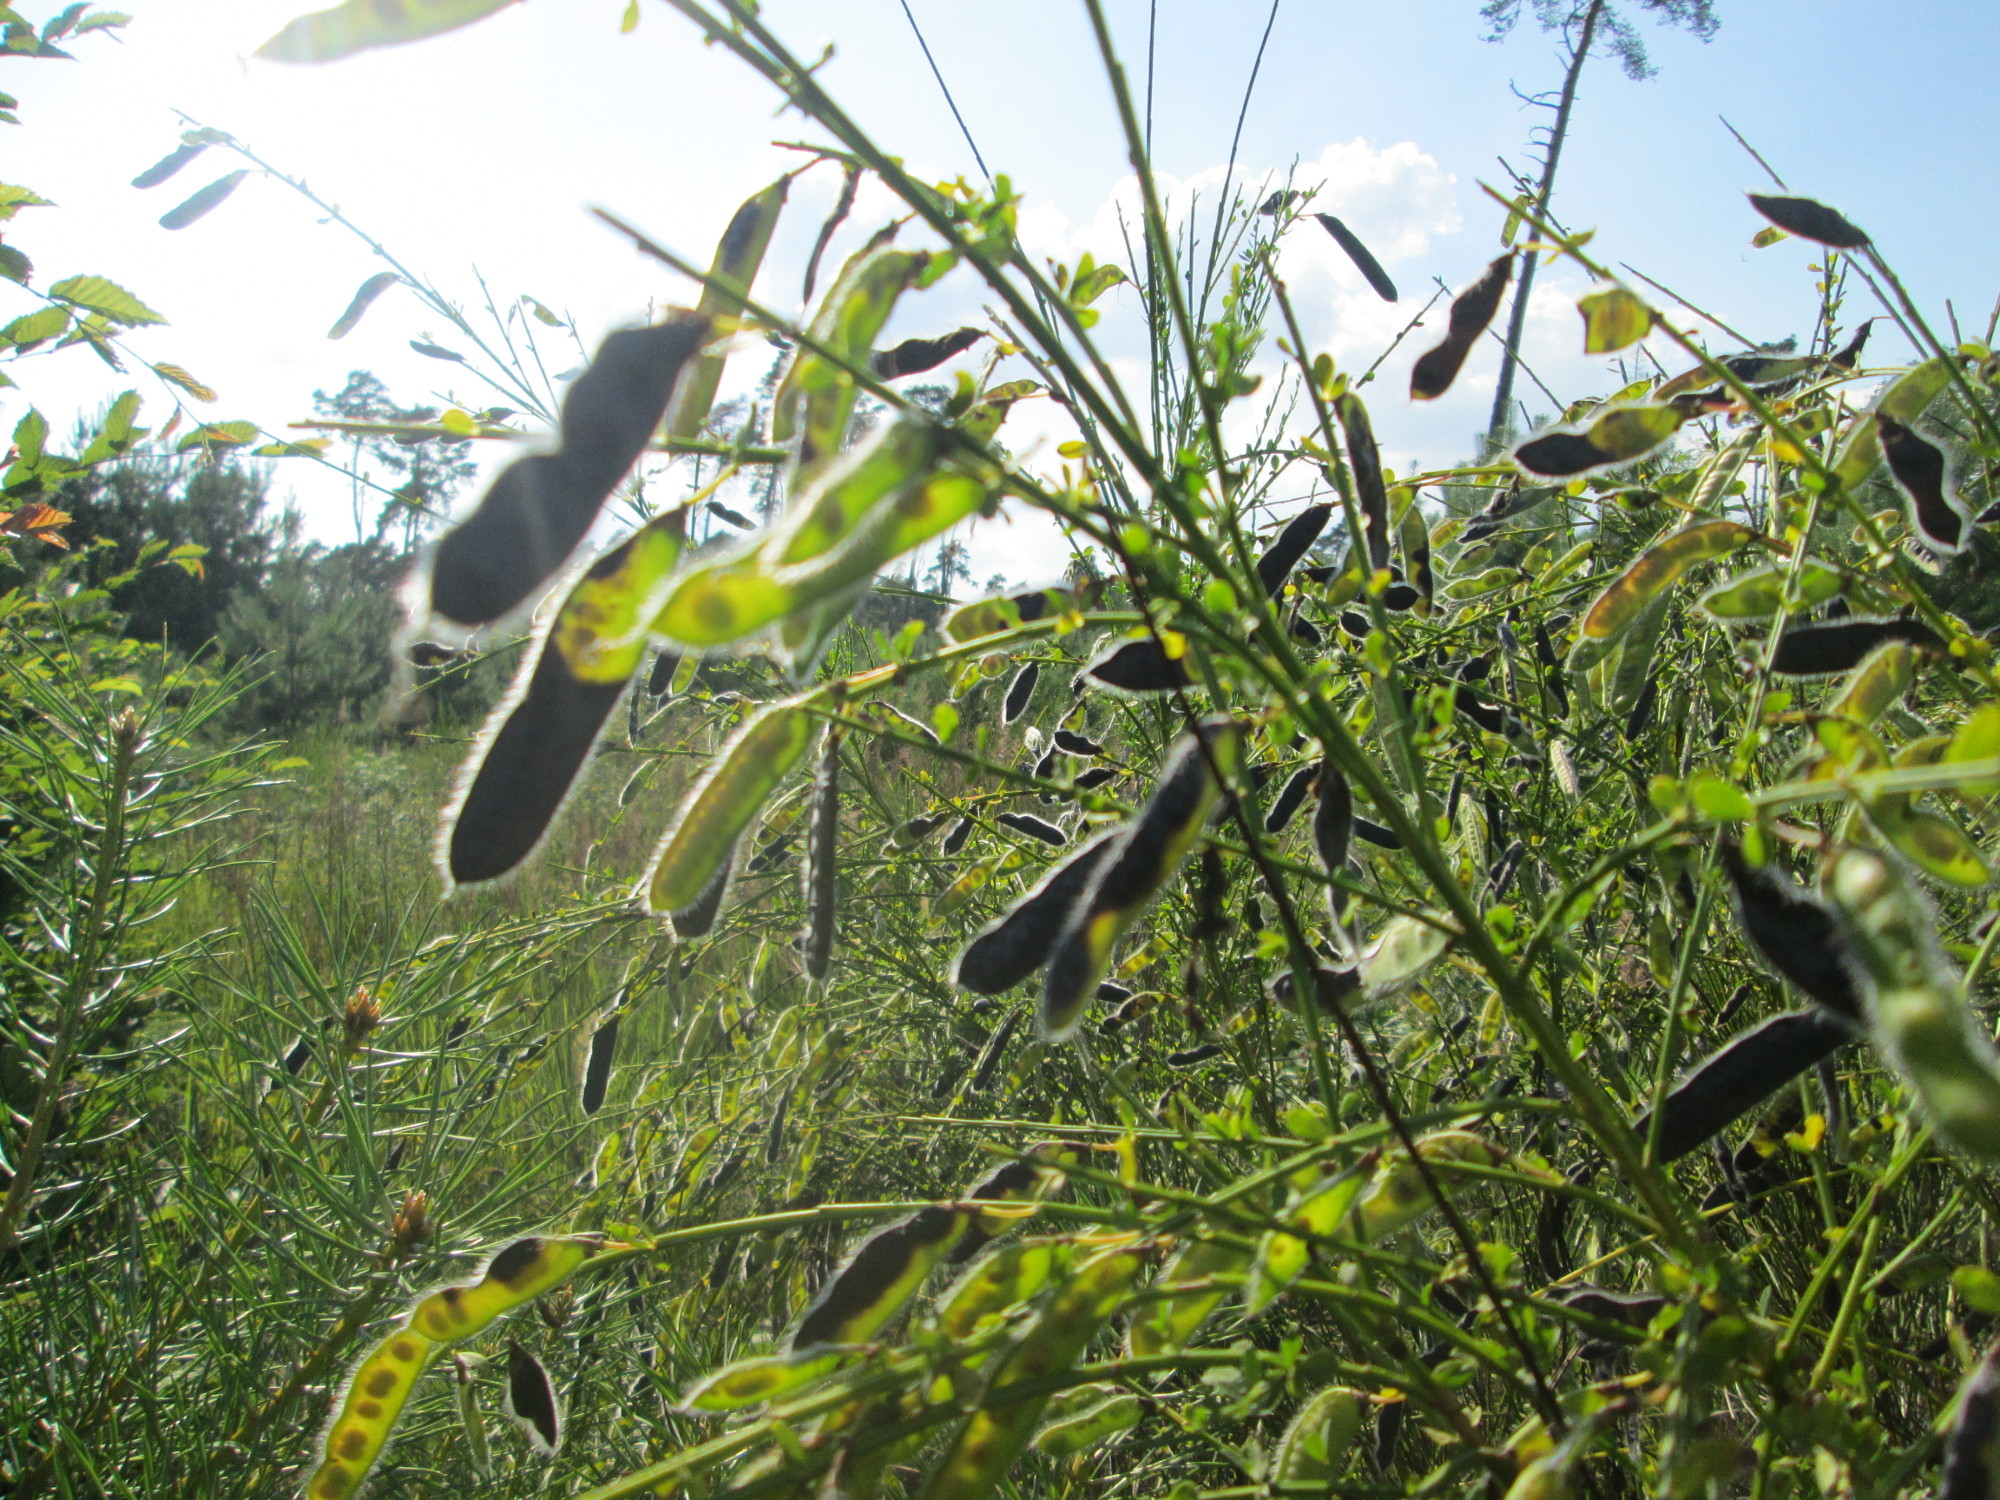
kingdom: Plantae
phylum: Tracheophyta
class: Magnoliopsida
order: Fabales
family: Fabaceae
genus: Cytisus
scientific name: Cytisus scoparius
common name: Scotch broom
